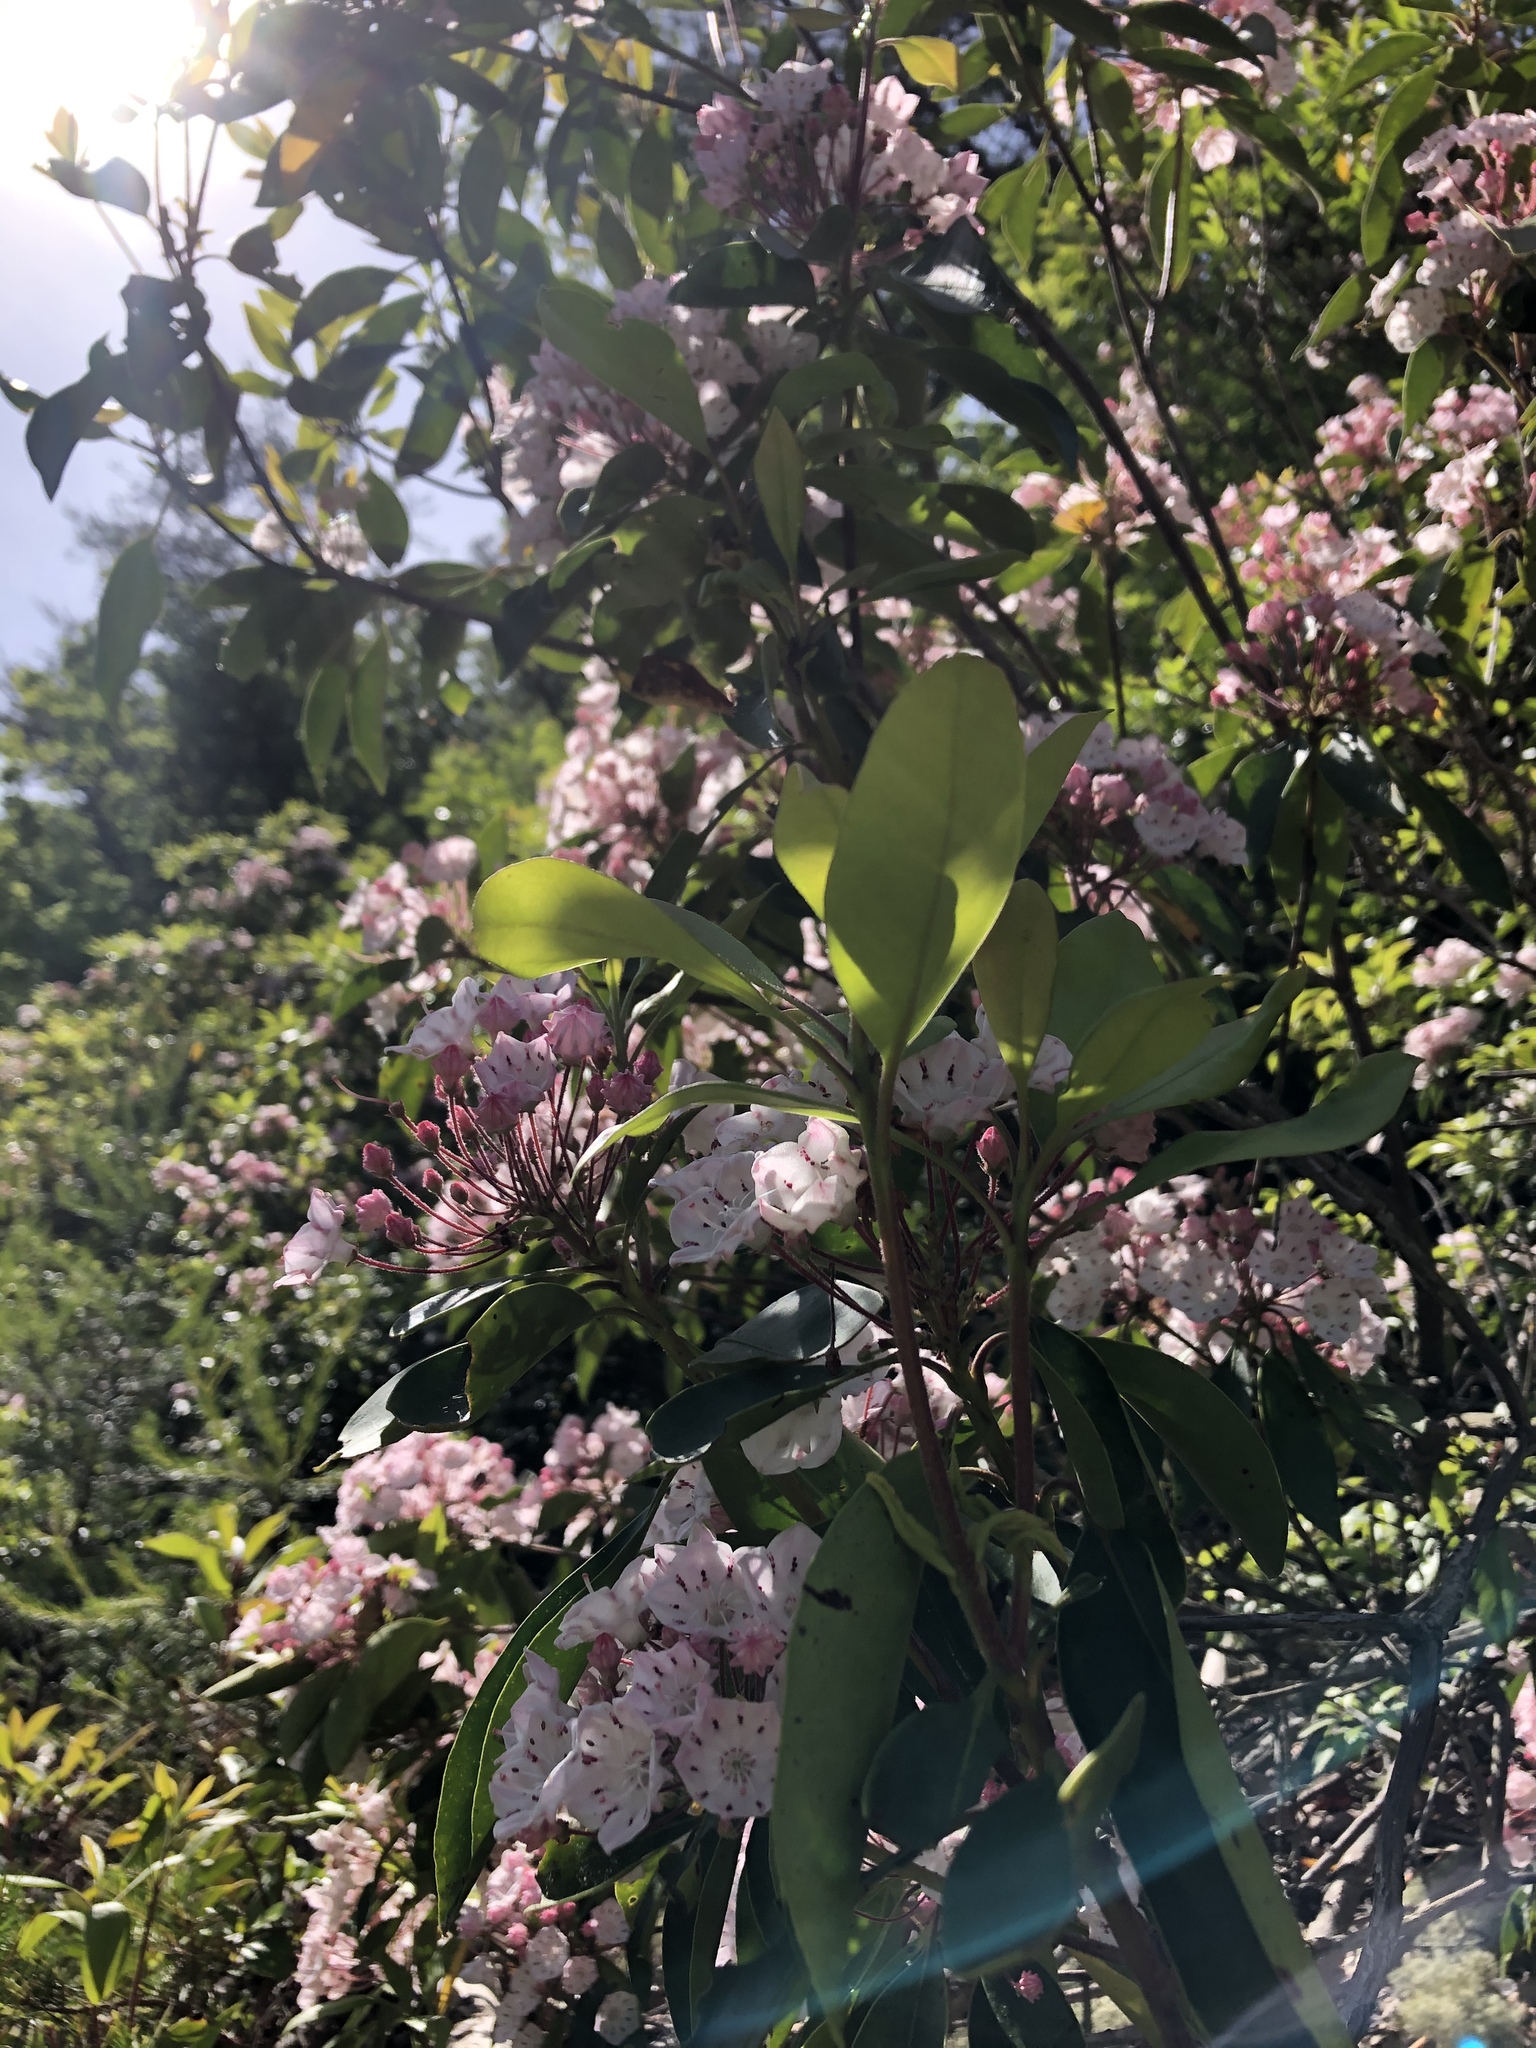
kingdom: Plantae
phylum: Tracheophyta
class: Magnoliopsida
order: Ericales
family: Ericaceae
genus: Kalmia
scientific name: Kalmia latifolia
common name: Mountain-laurel
